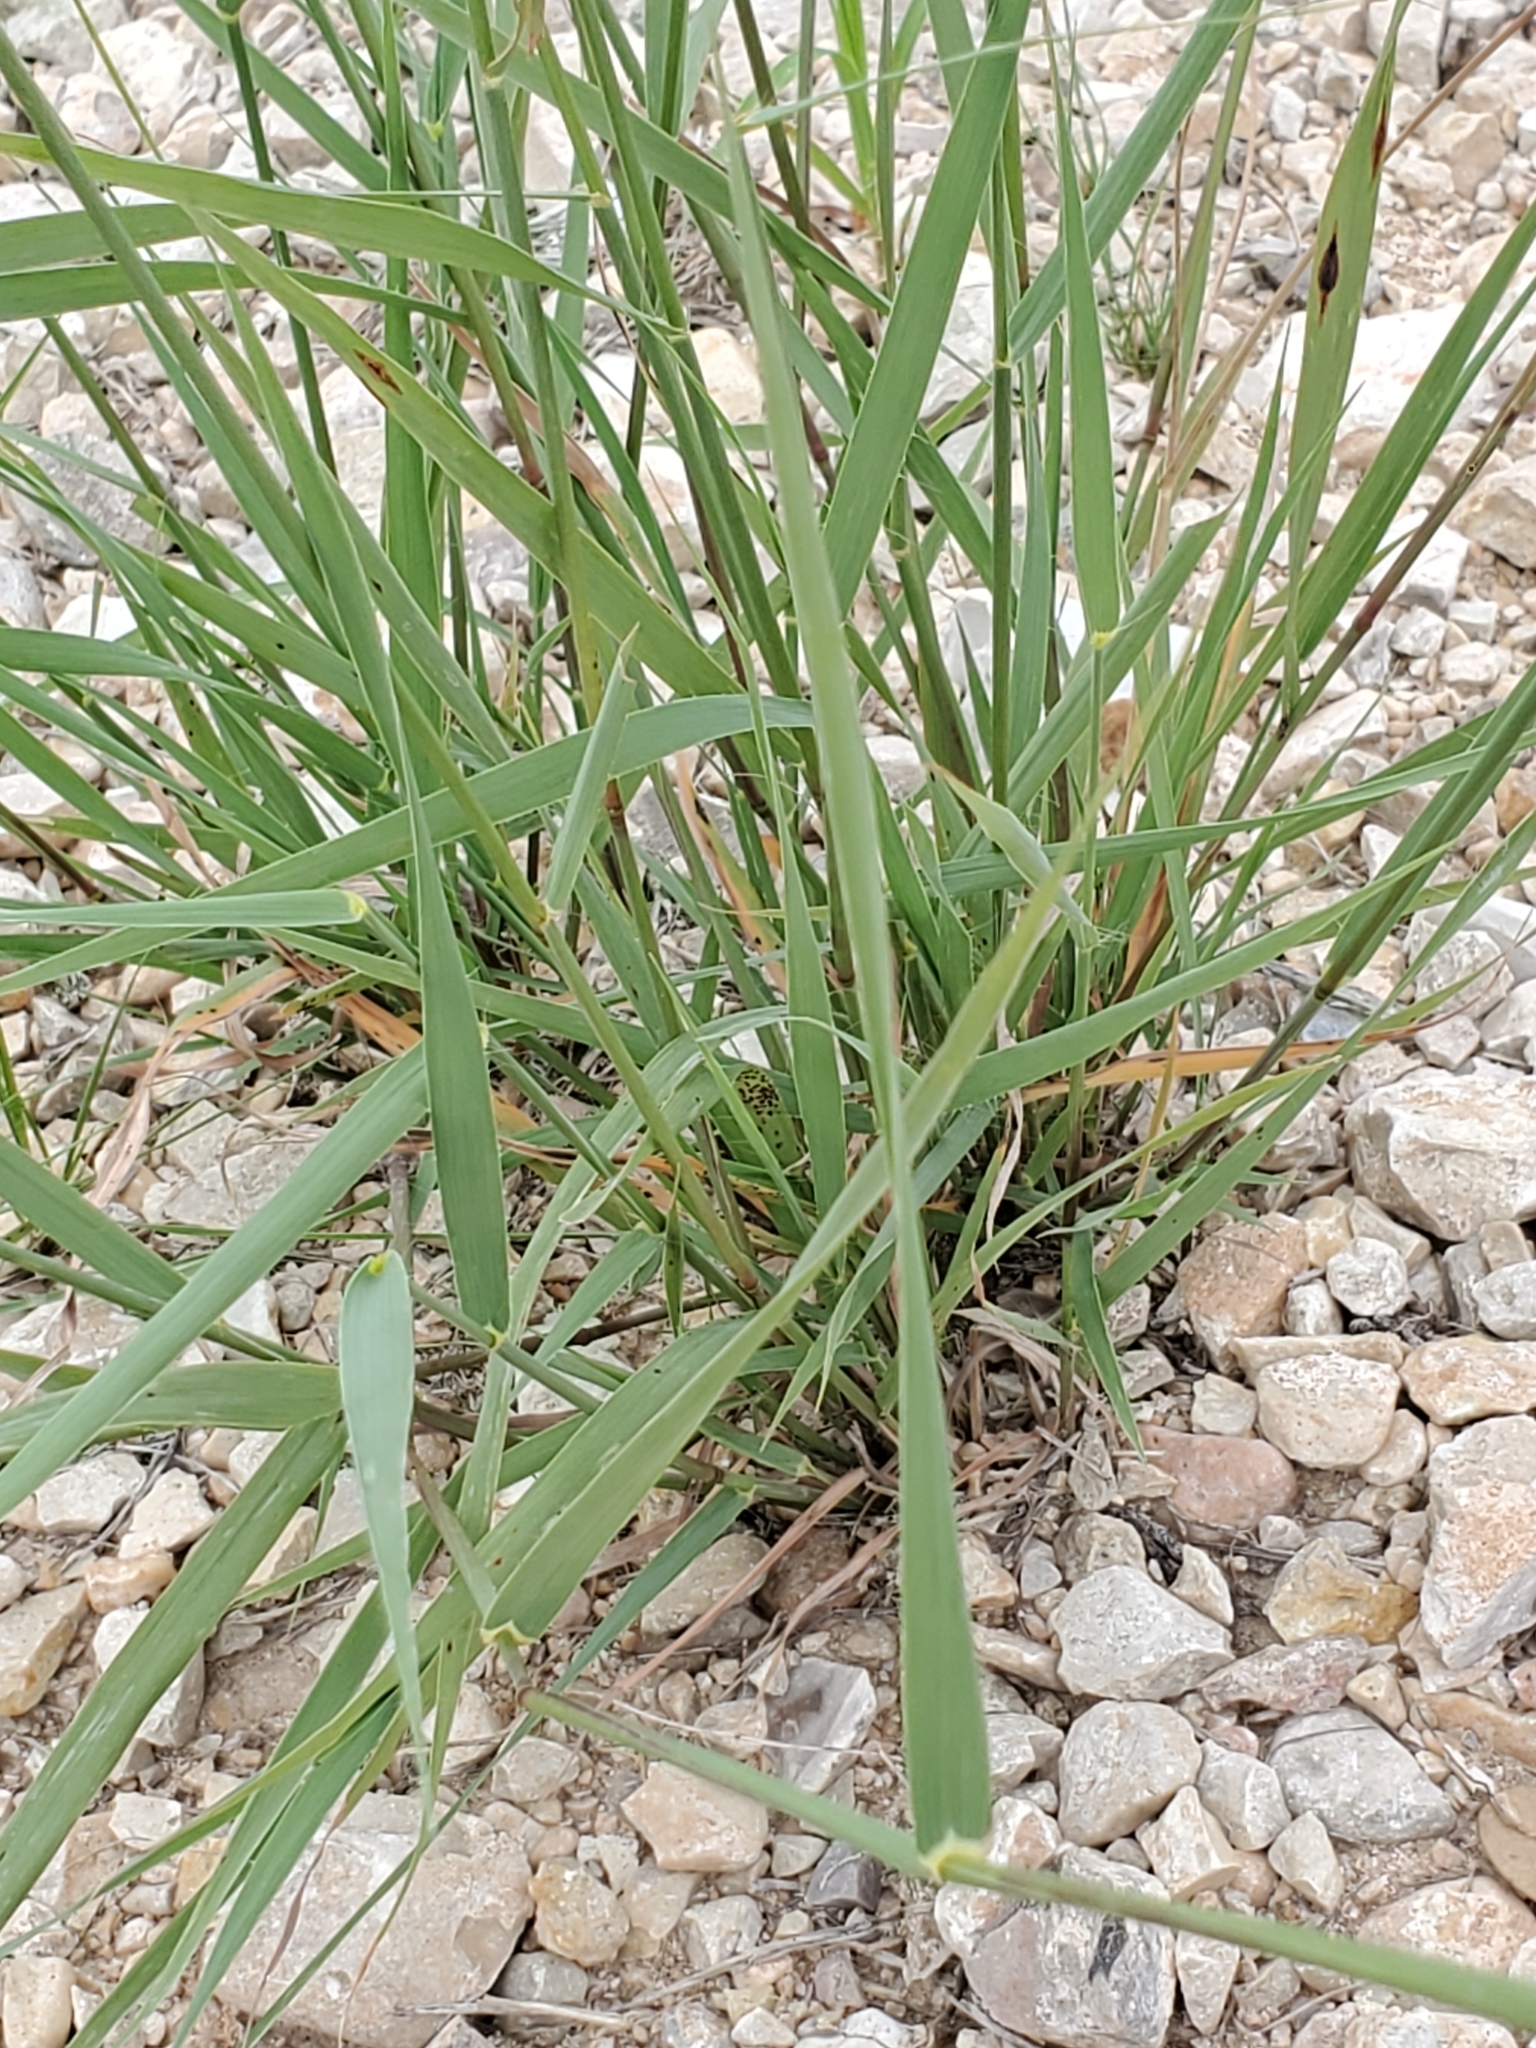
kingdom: Plantae
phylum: Tracheophyta
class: Liliopsida
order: Poales
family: Poaceae
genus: Bouteloua
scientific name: Bouteloua curtipendula
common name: Side-oats grama
